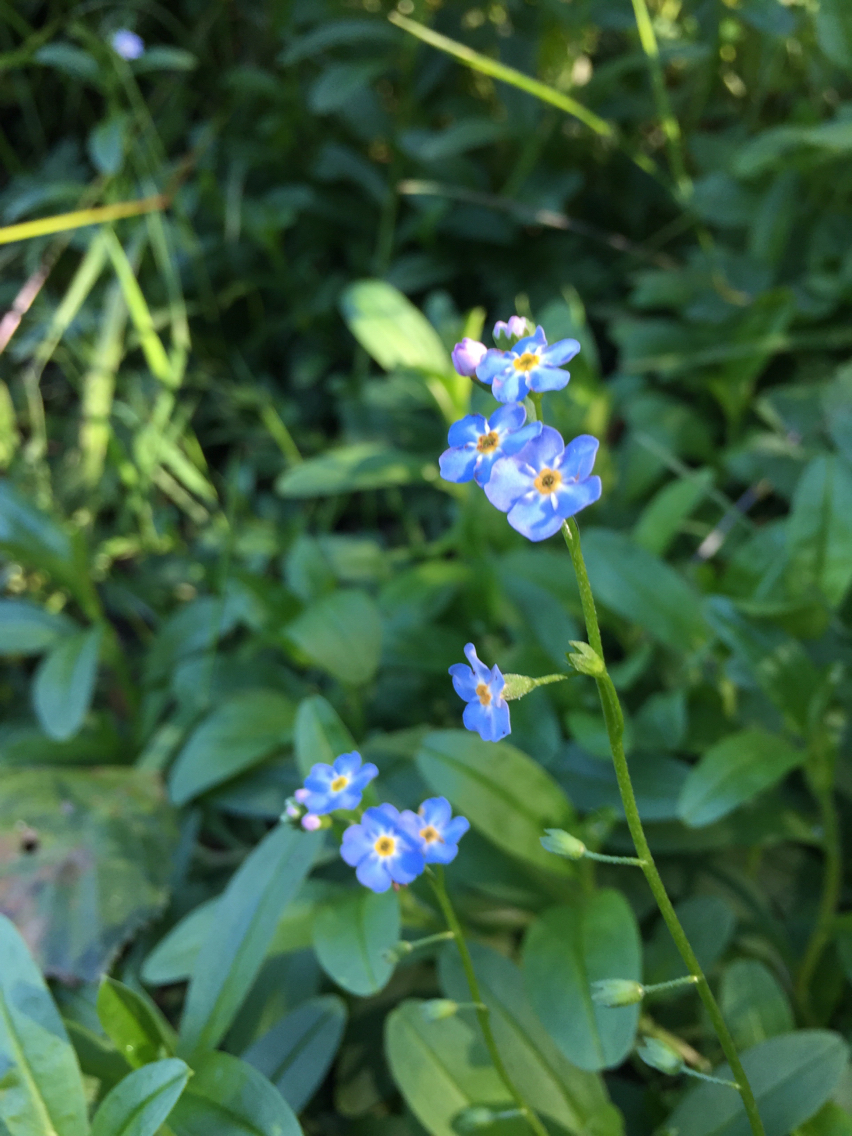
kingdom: Plantae
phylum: Tracheophyta
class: Magnoliopsida
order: Boraginales
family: Boraginaceae
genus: Myosotis
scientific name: Myosotis scorpioides
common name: Water forget-me-not
